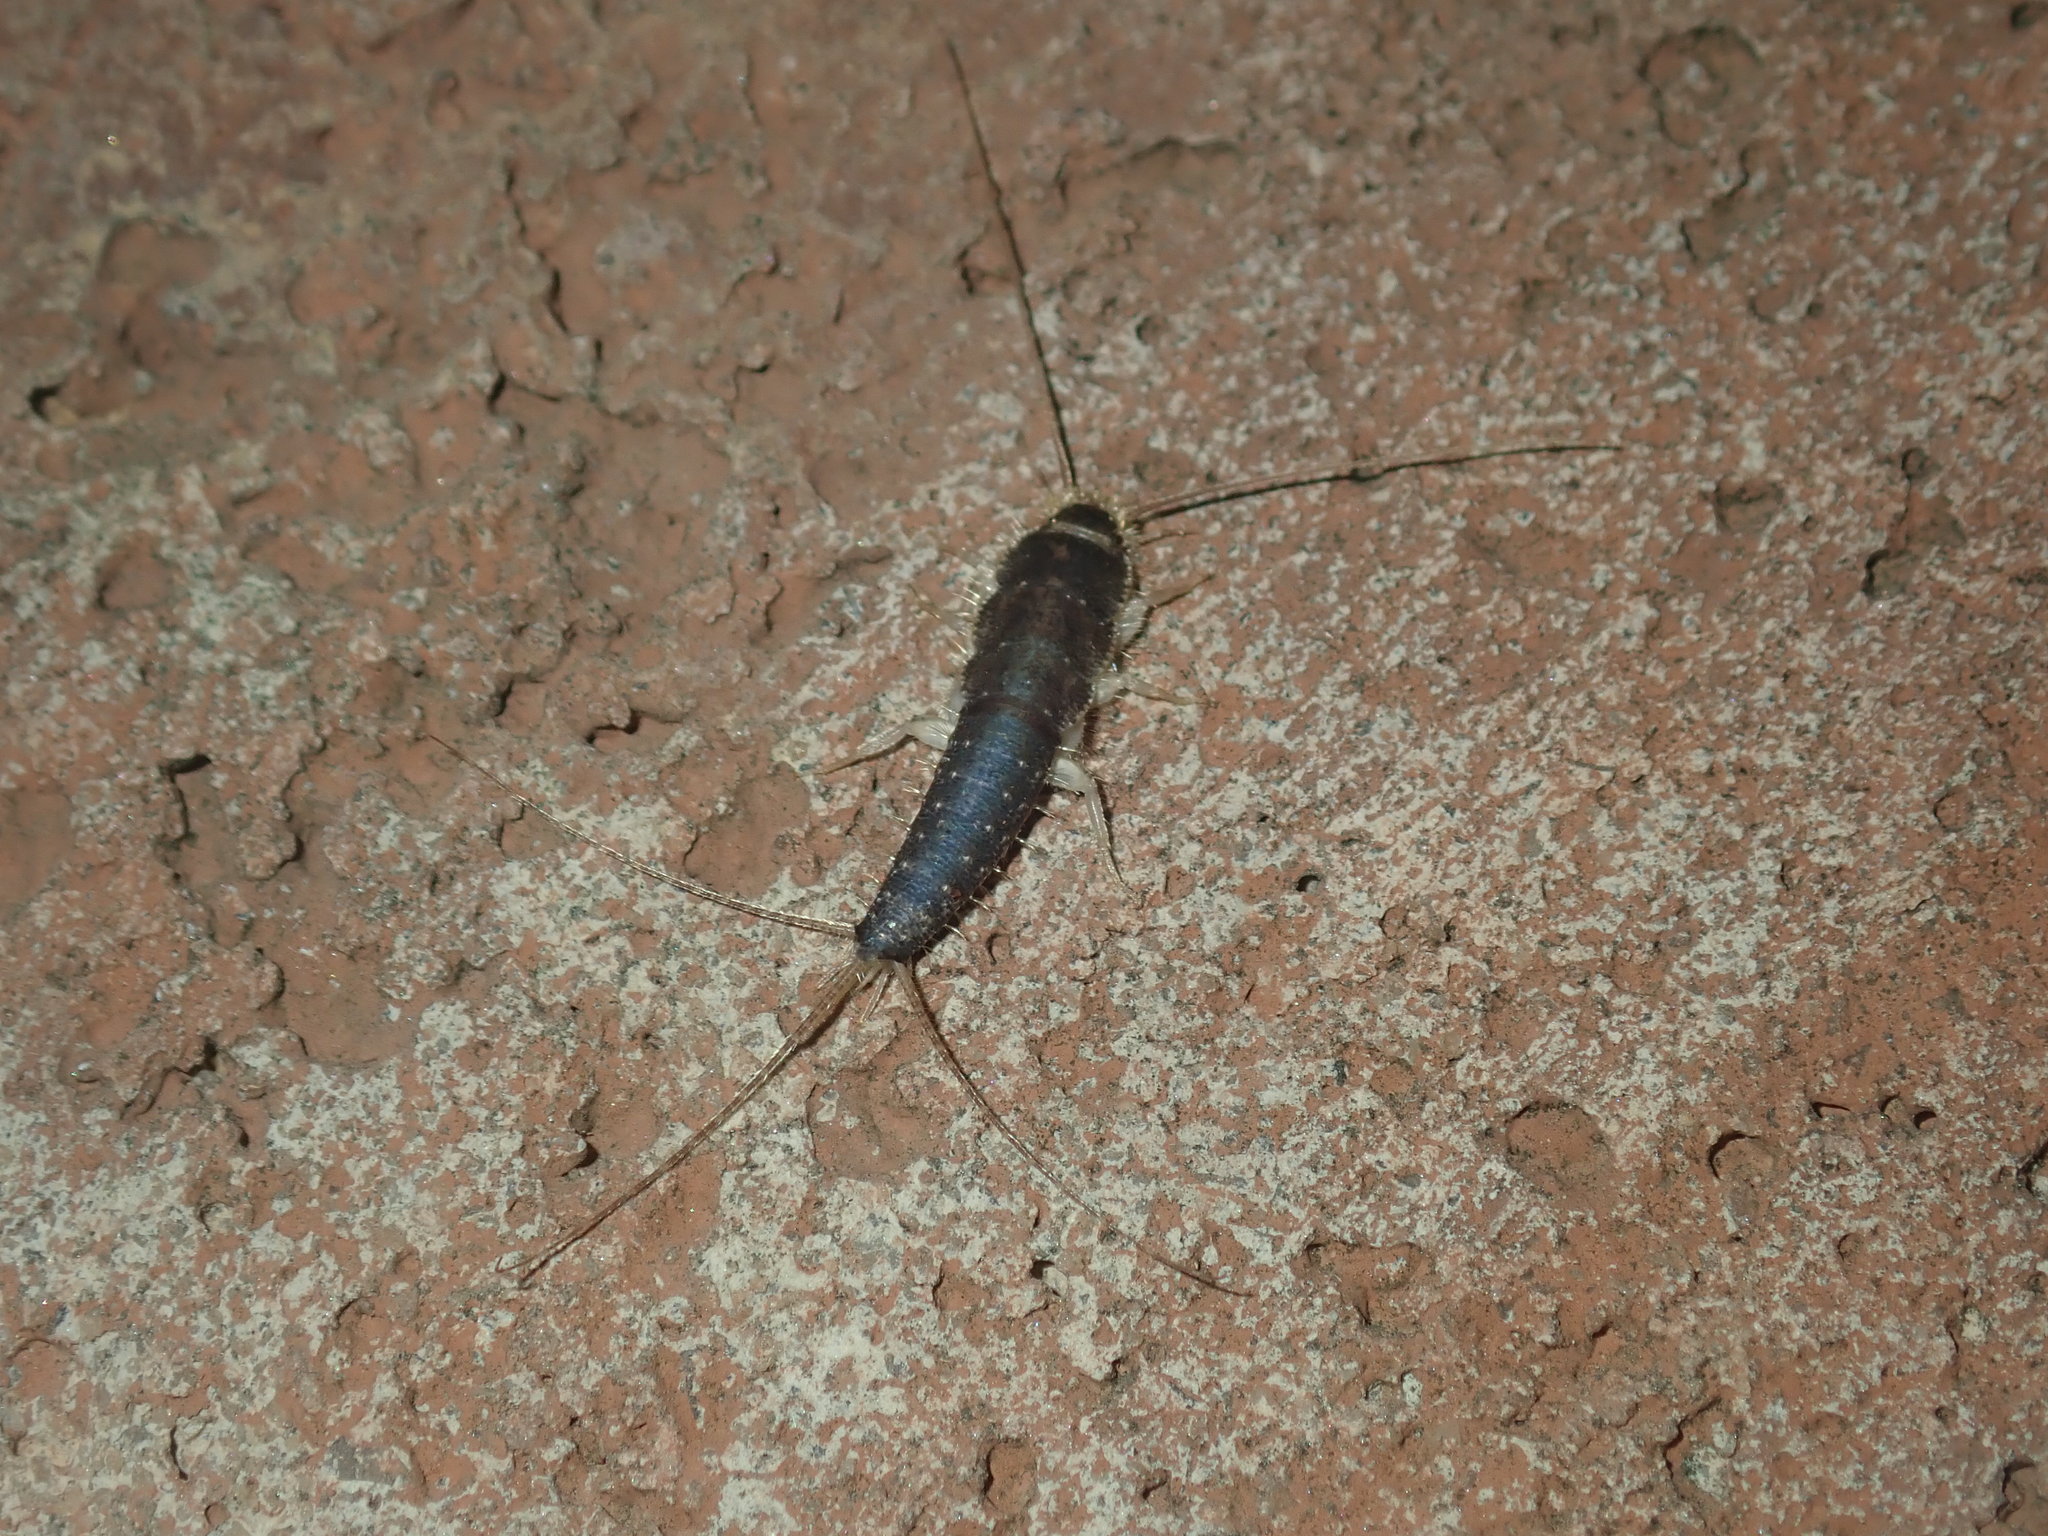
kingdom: Animalia
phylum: Arthropoda
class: Insecta
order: Zygentoma
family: Lepismatidae
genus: Ctenolepisma
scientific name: Ctenolepisma longicaudatum
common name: Silverfish
